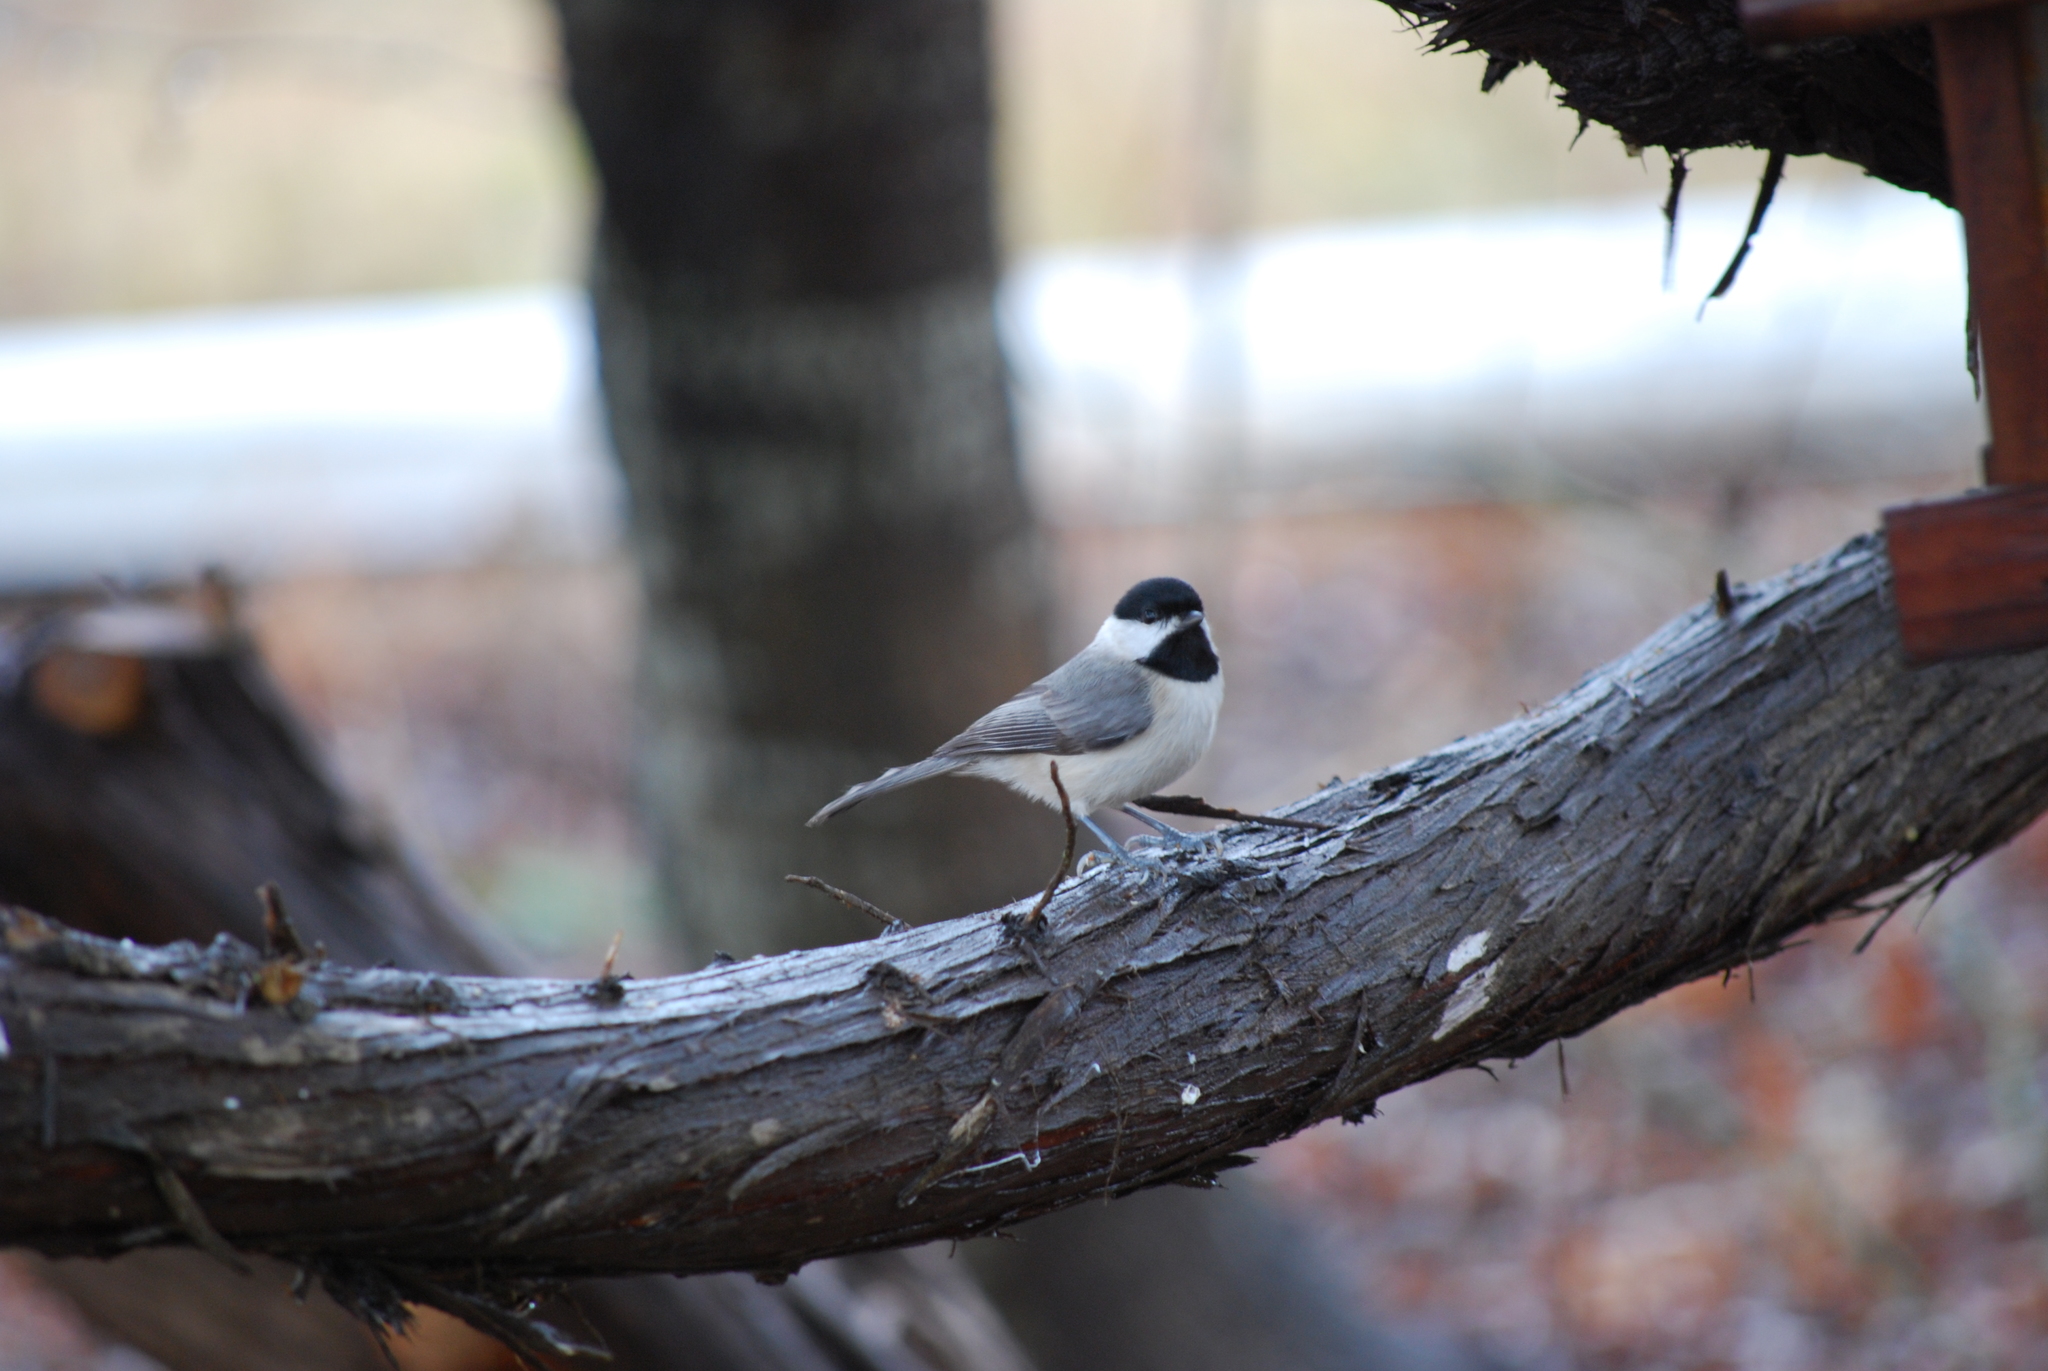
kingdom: Animalia
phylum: Chordata
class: Aves
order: Passeriformes
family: Paridae
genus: Poecile
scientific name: Poecile carolinensis
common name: Carolina chickadee
